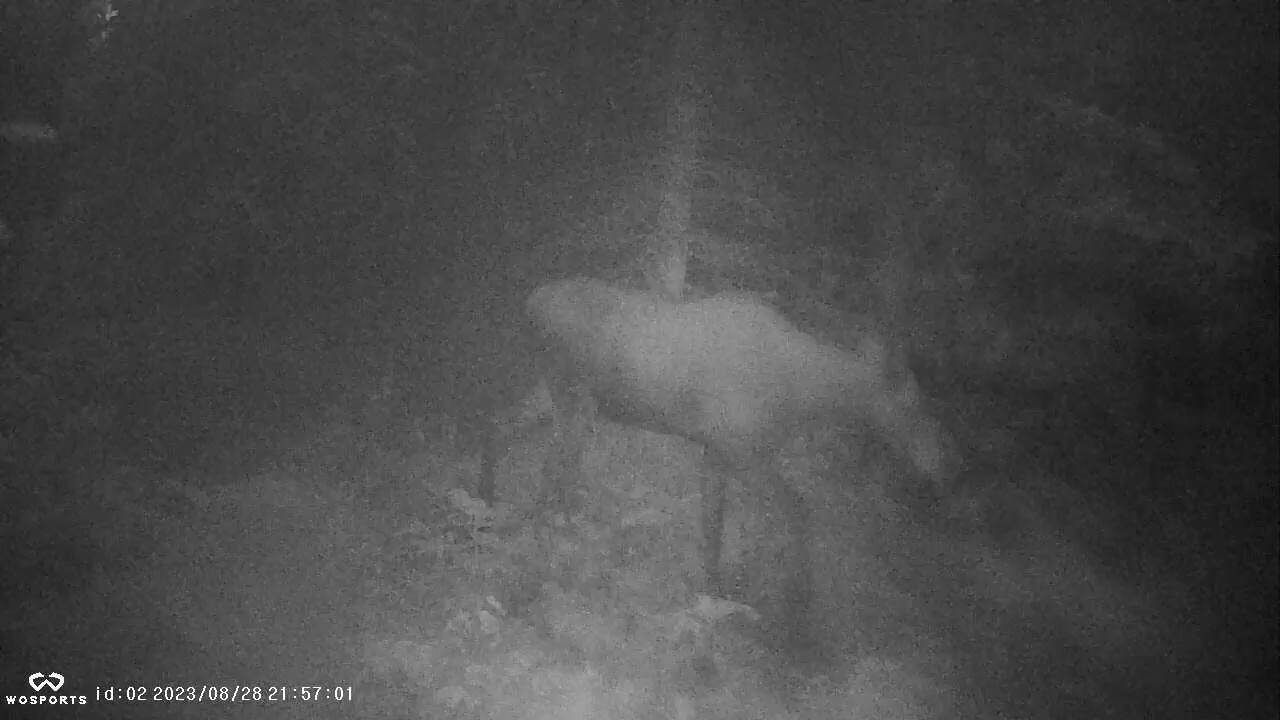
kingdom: Animalia
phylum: Chordata
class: Mammalia
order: Artiodactyla
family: Cervidae
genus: Alces
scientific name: Alces alces
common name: Moose
